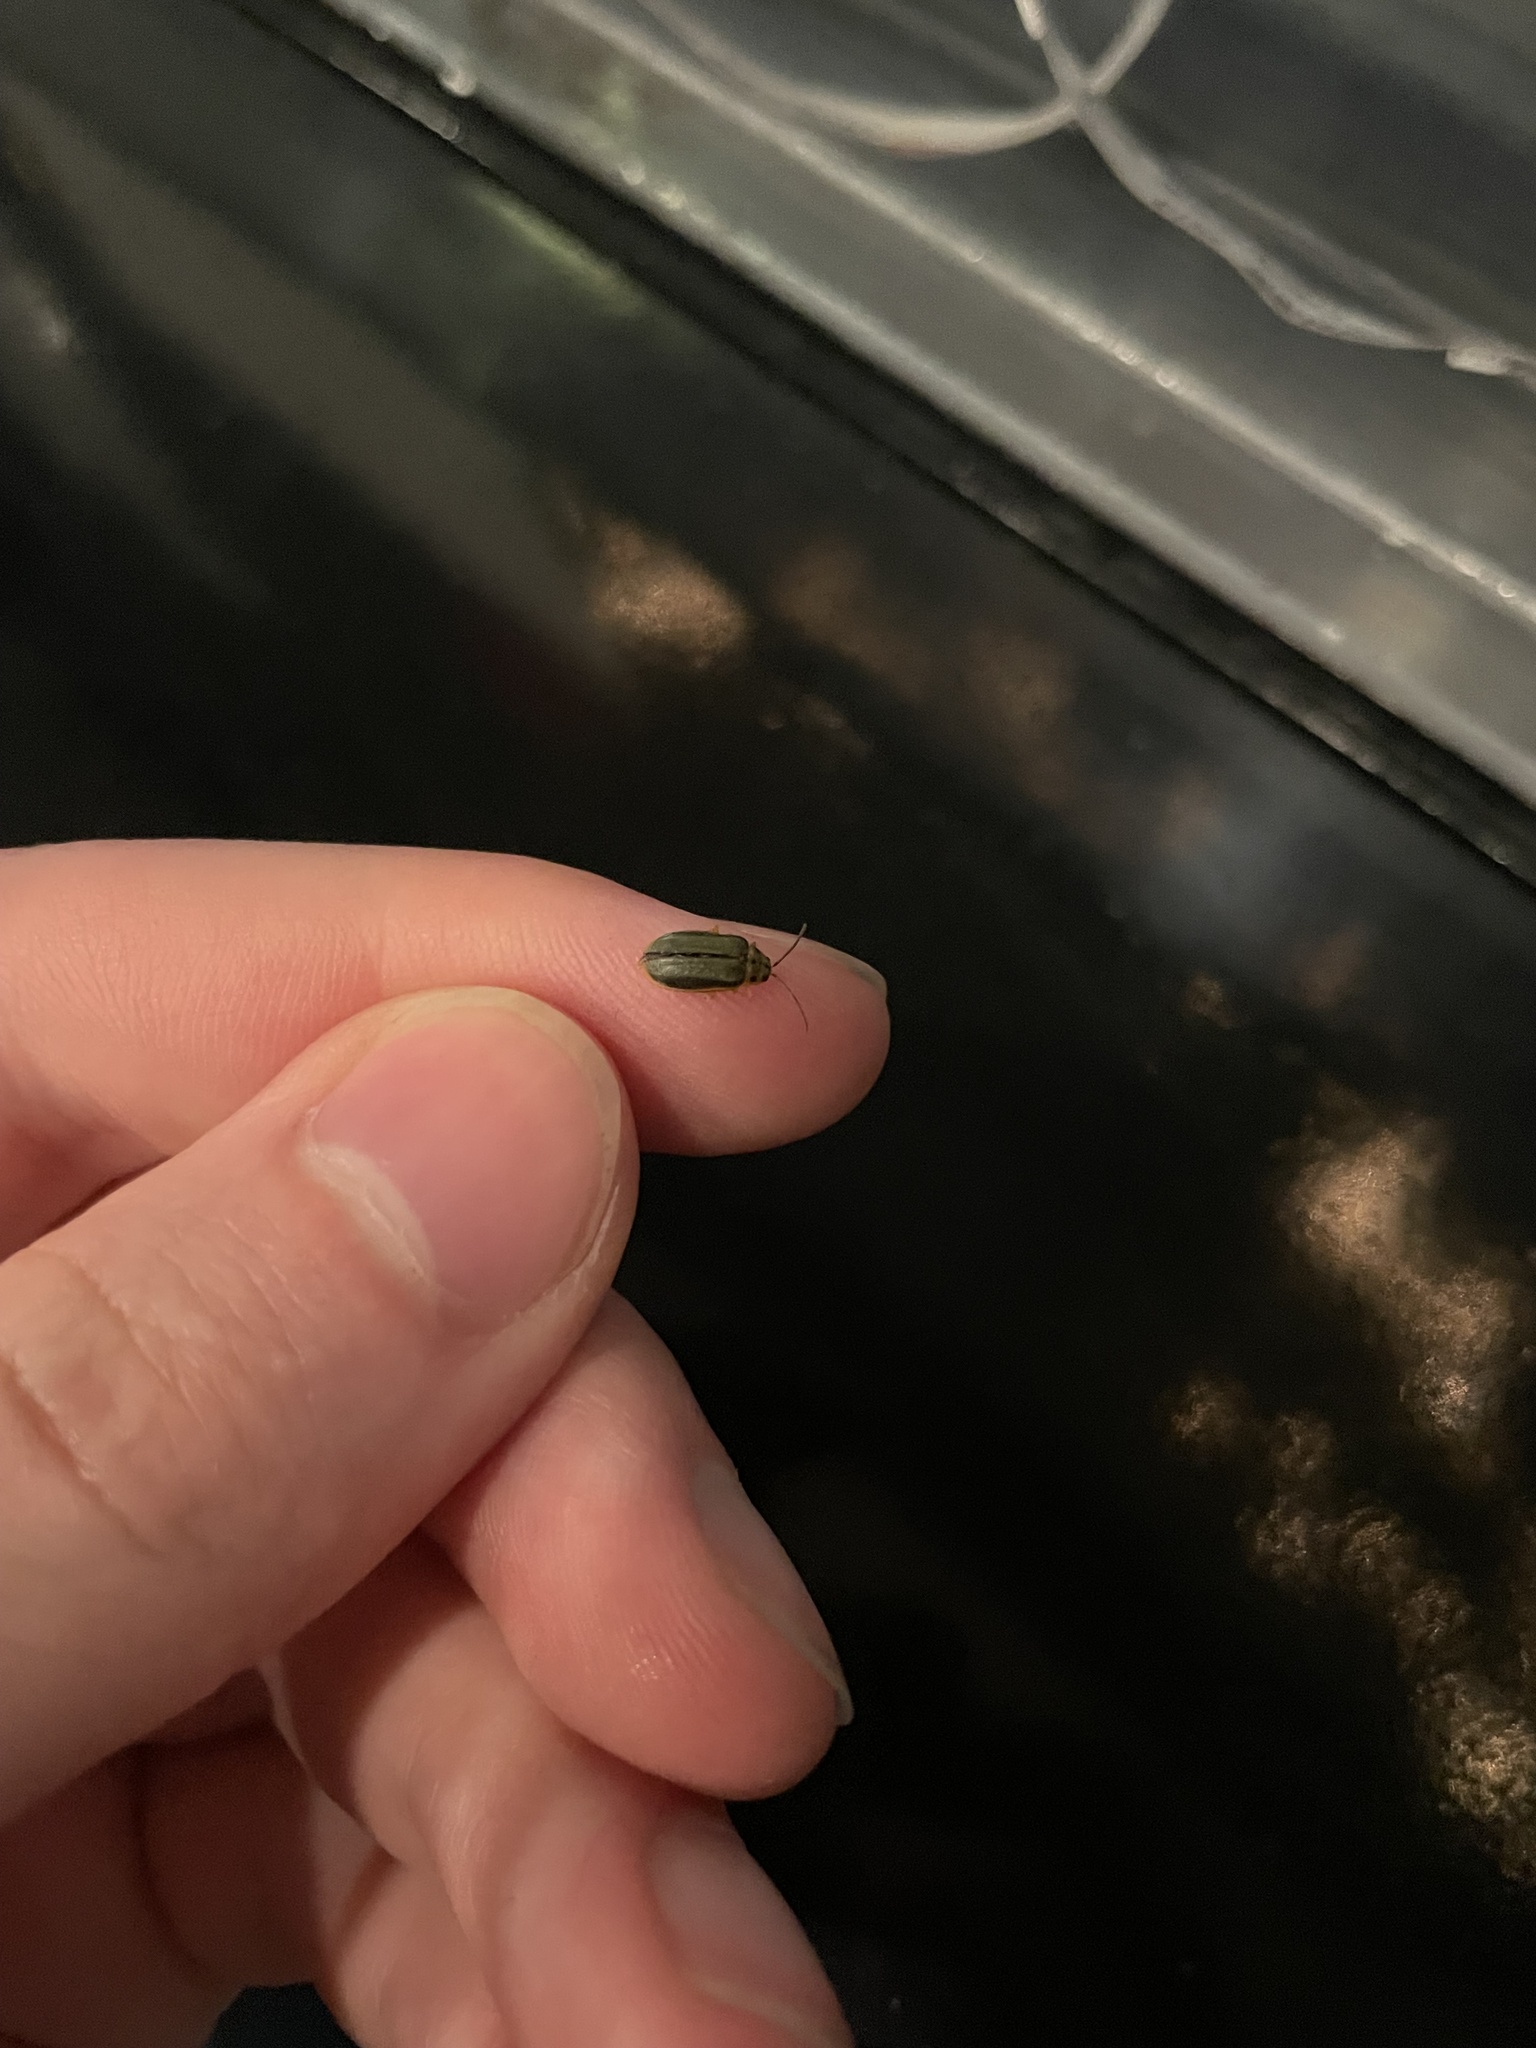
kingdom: Animalia
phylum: Arthropoda
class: Insecta
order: Coleoptera
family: Chrysomelidae
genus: Xanthogaleruca
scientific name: Xanthogaleruca luteola
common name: Elm leaf beetle
